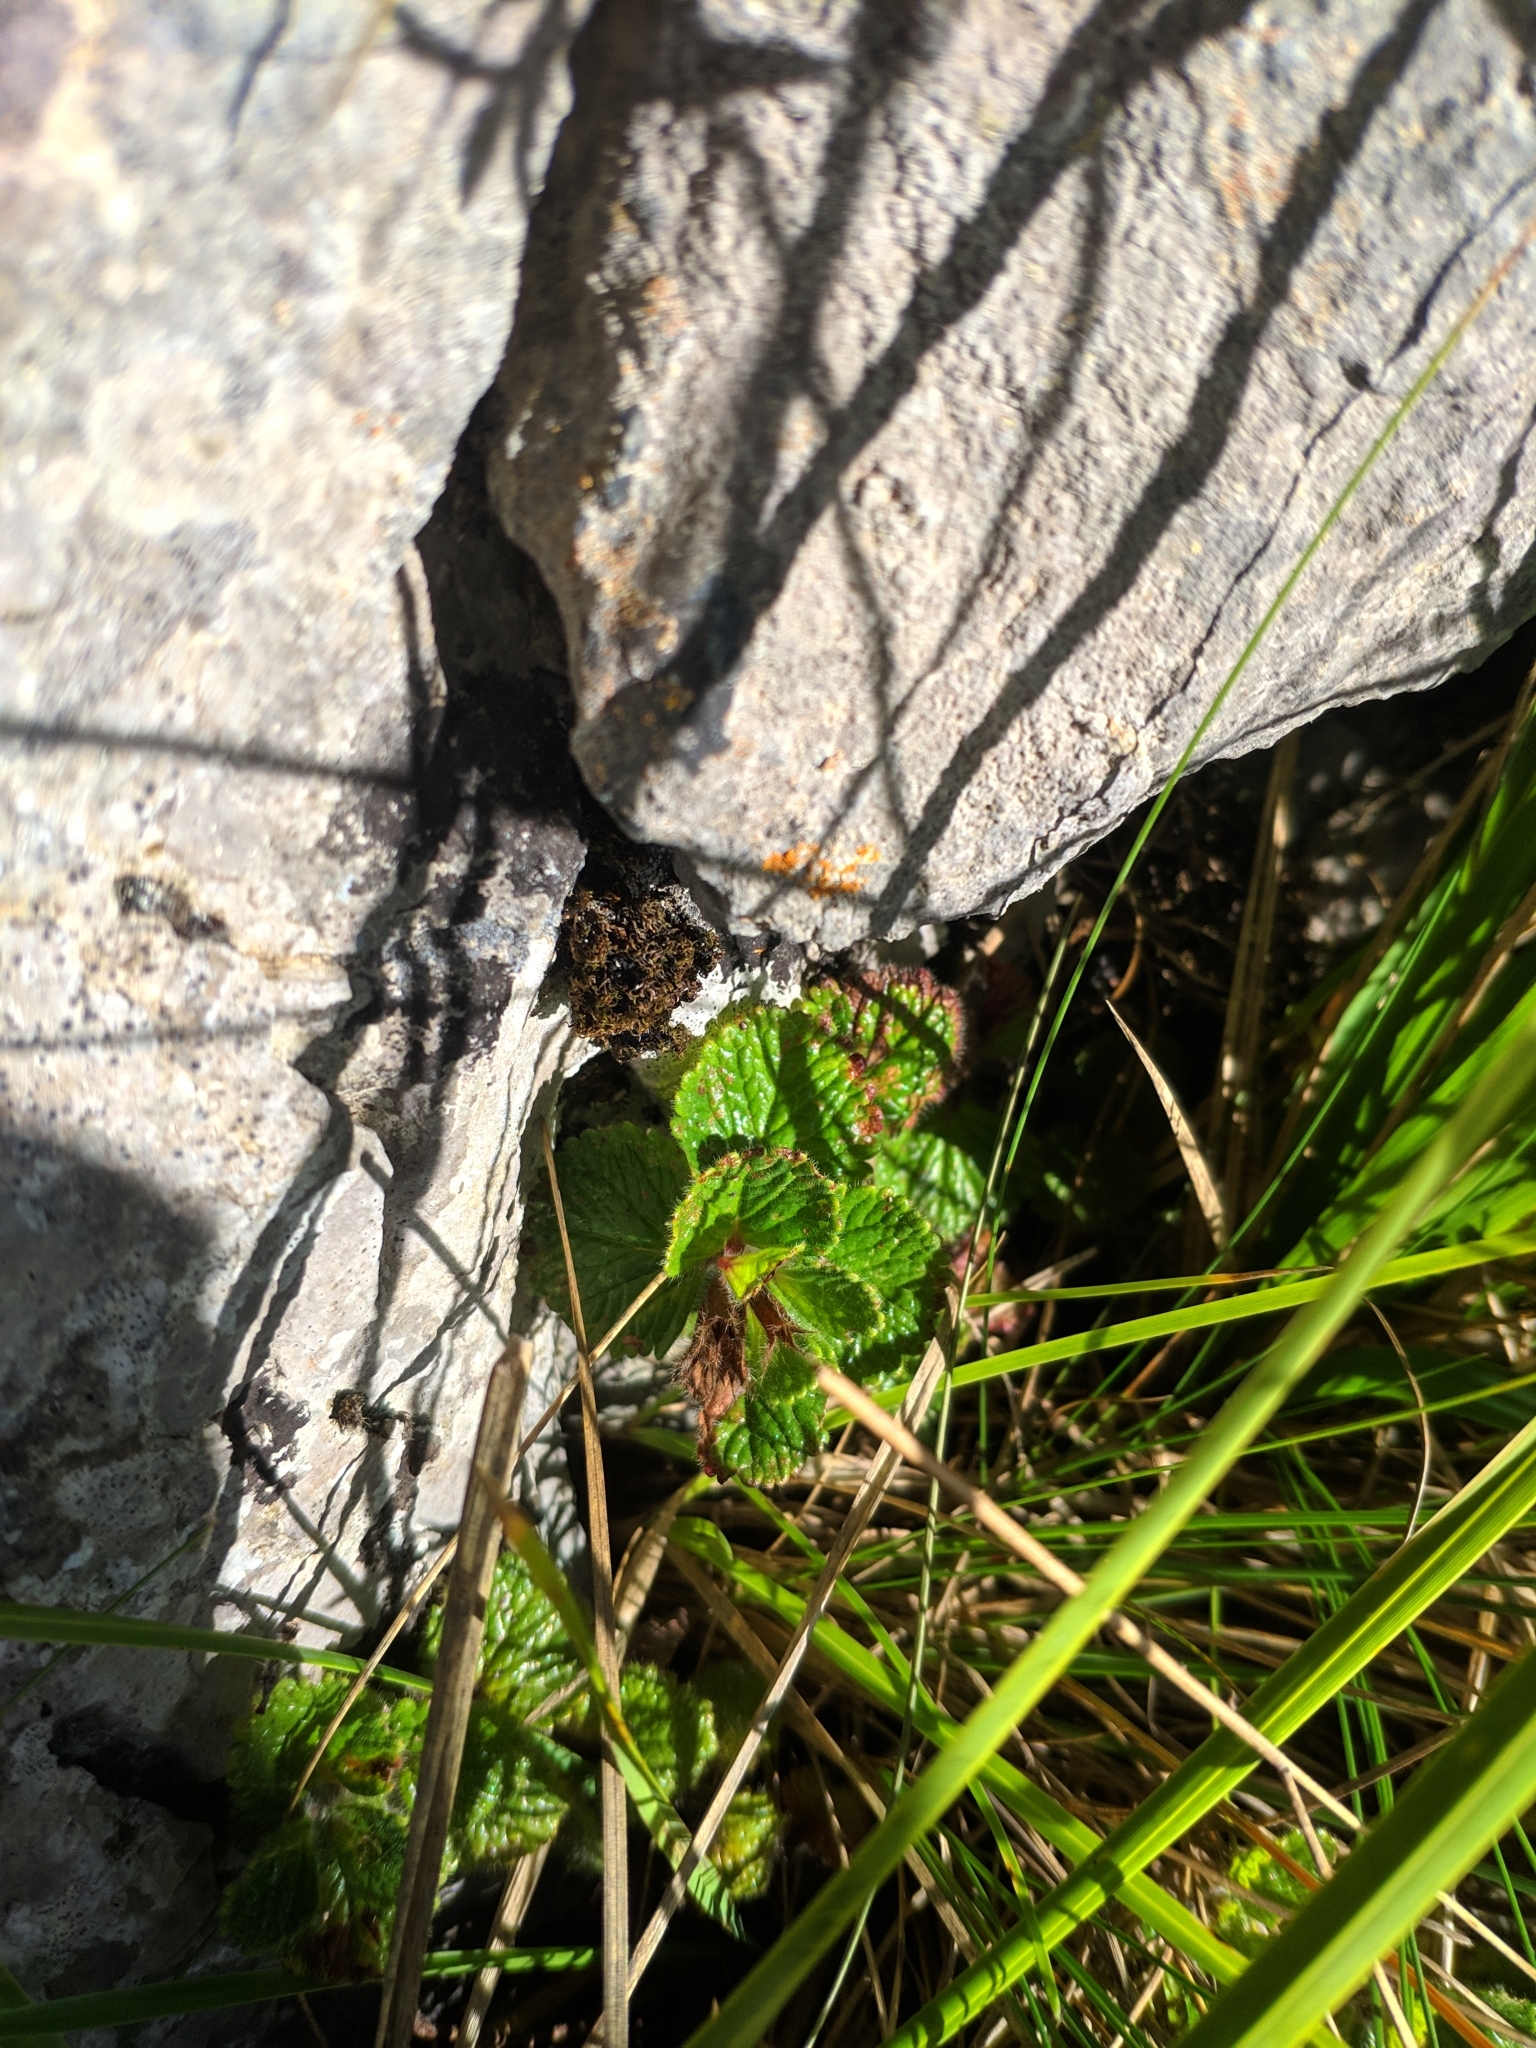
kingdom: Plantae
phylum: Tracheophyta
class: Magnoliopsida
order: Lamiales
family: Lamiaceae
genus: Teucrium
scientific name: Teucrium pyrenaicum
